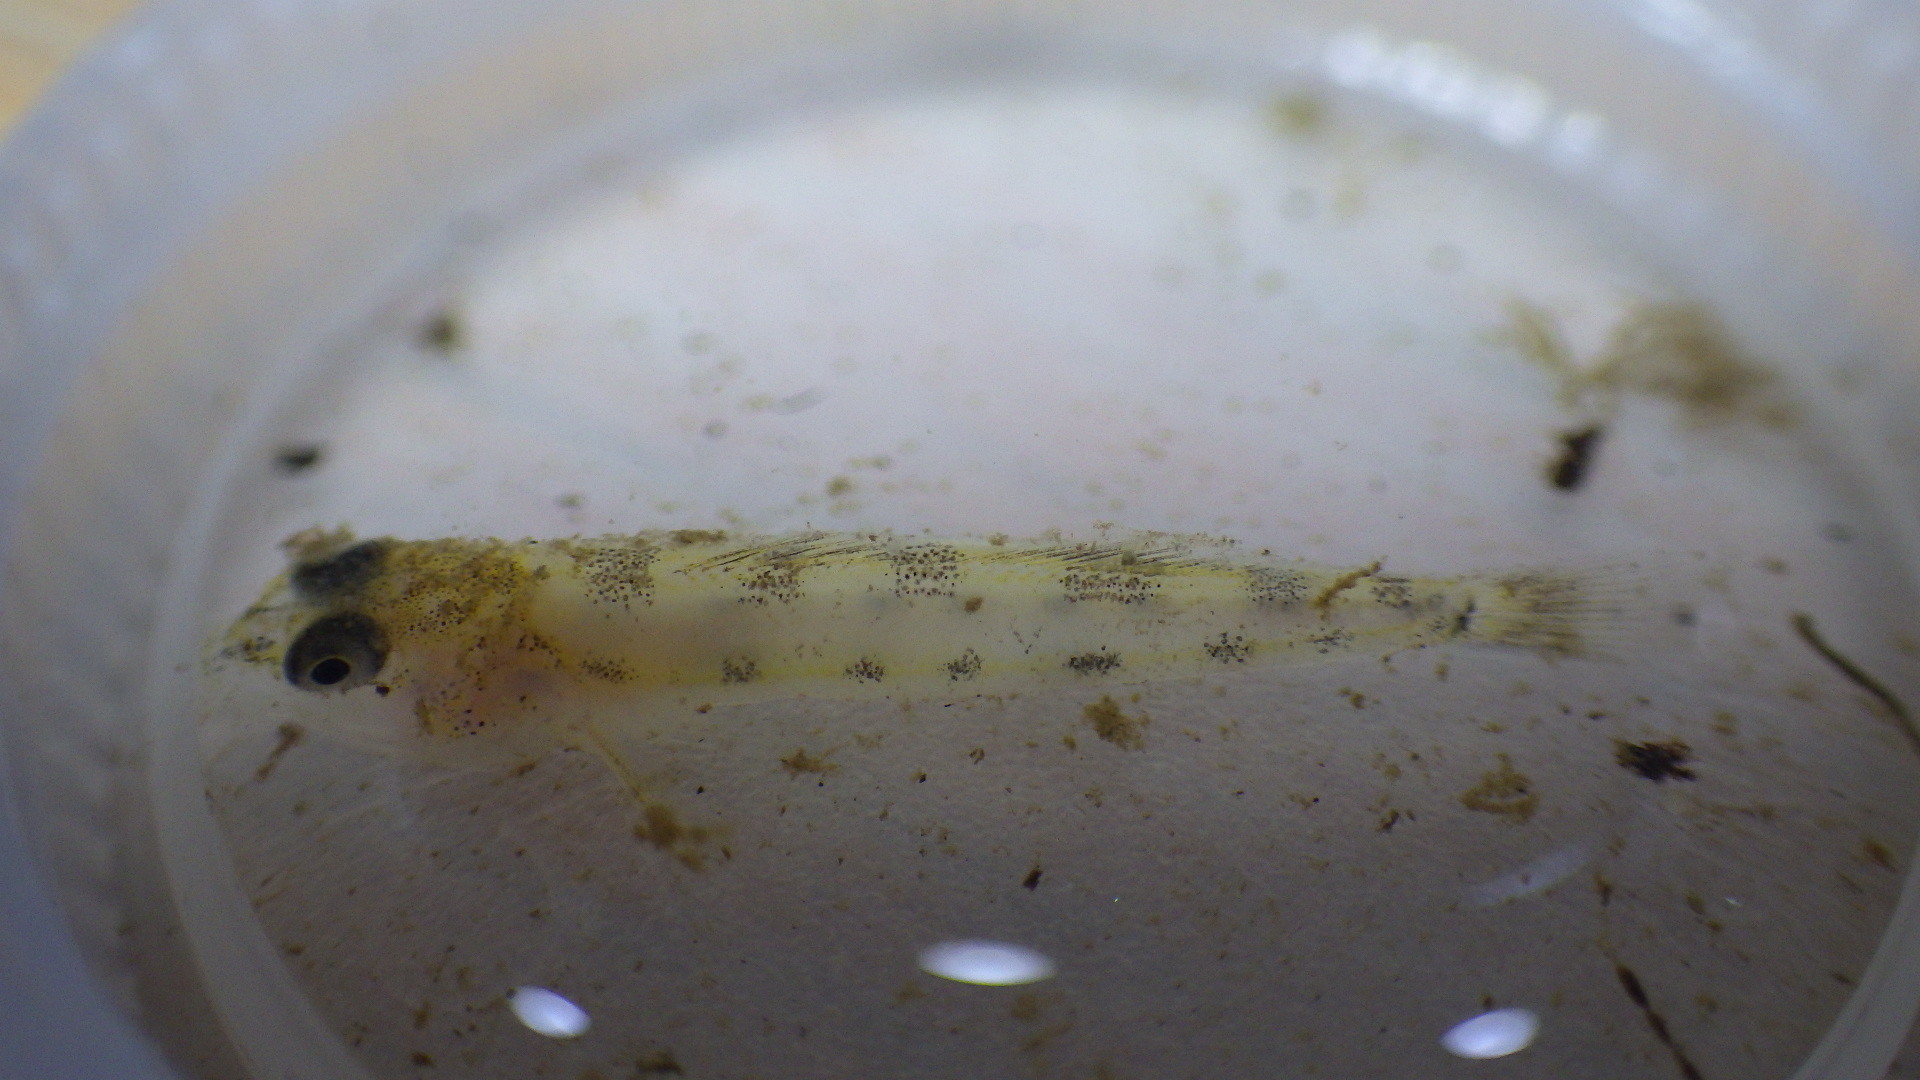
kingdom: Animalia
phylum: Chordata
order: Perciformes
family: Percidae
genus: Etheostoma
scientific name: Etheostoma olmstedi
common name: Tessellated darter
